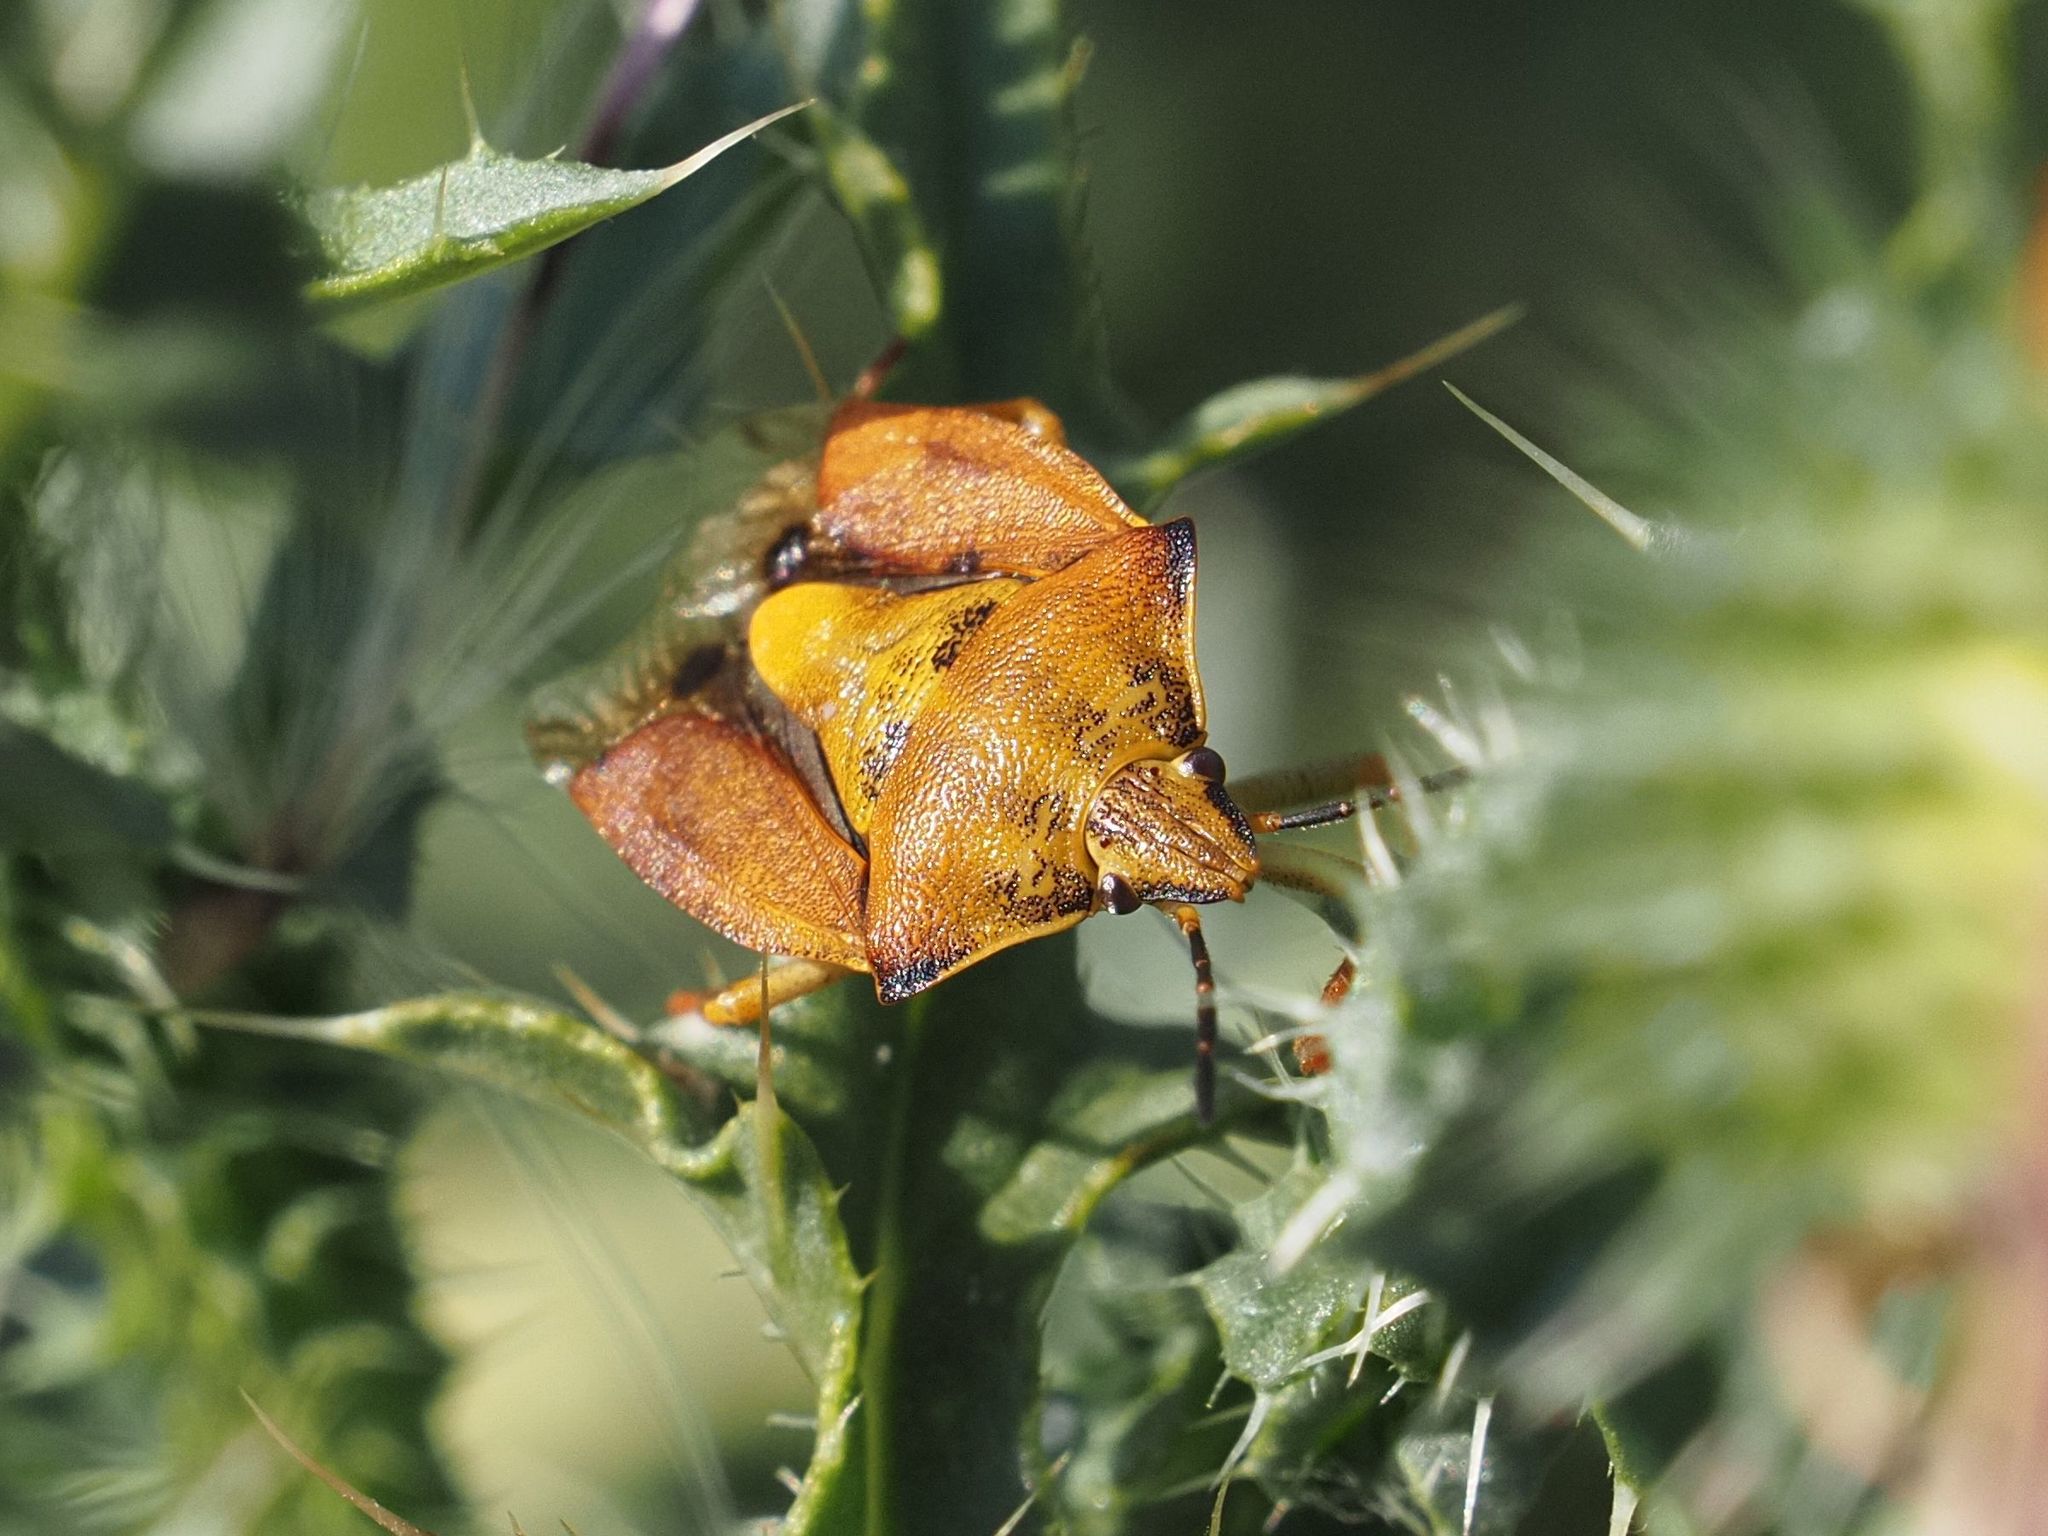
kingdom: Animalia
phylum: Arthropoda
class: Insecta
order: Hemiptera
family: Pentatomidae
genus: Carpocoris
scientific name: Carpocoris purpureipennis
